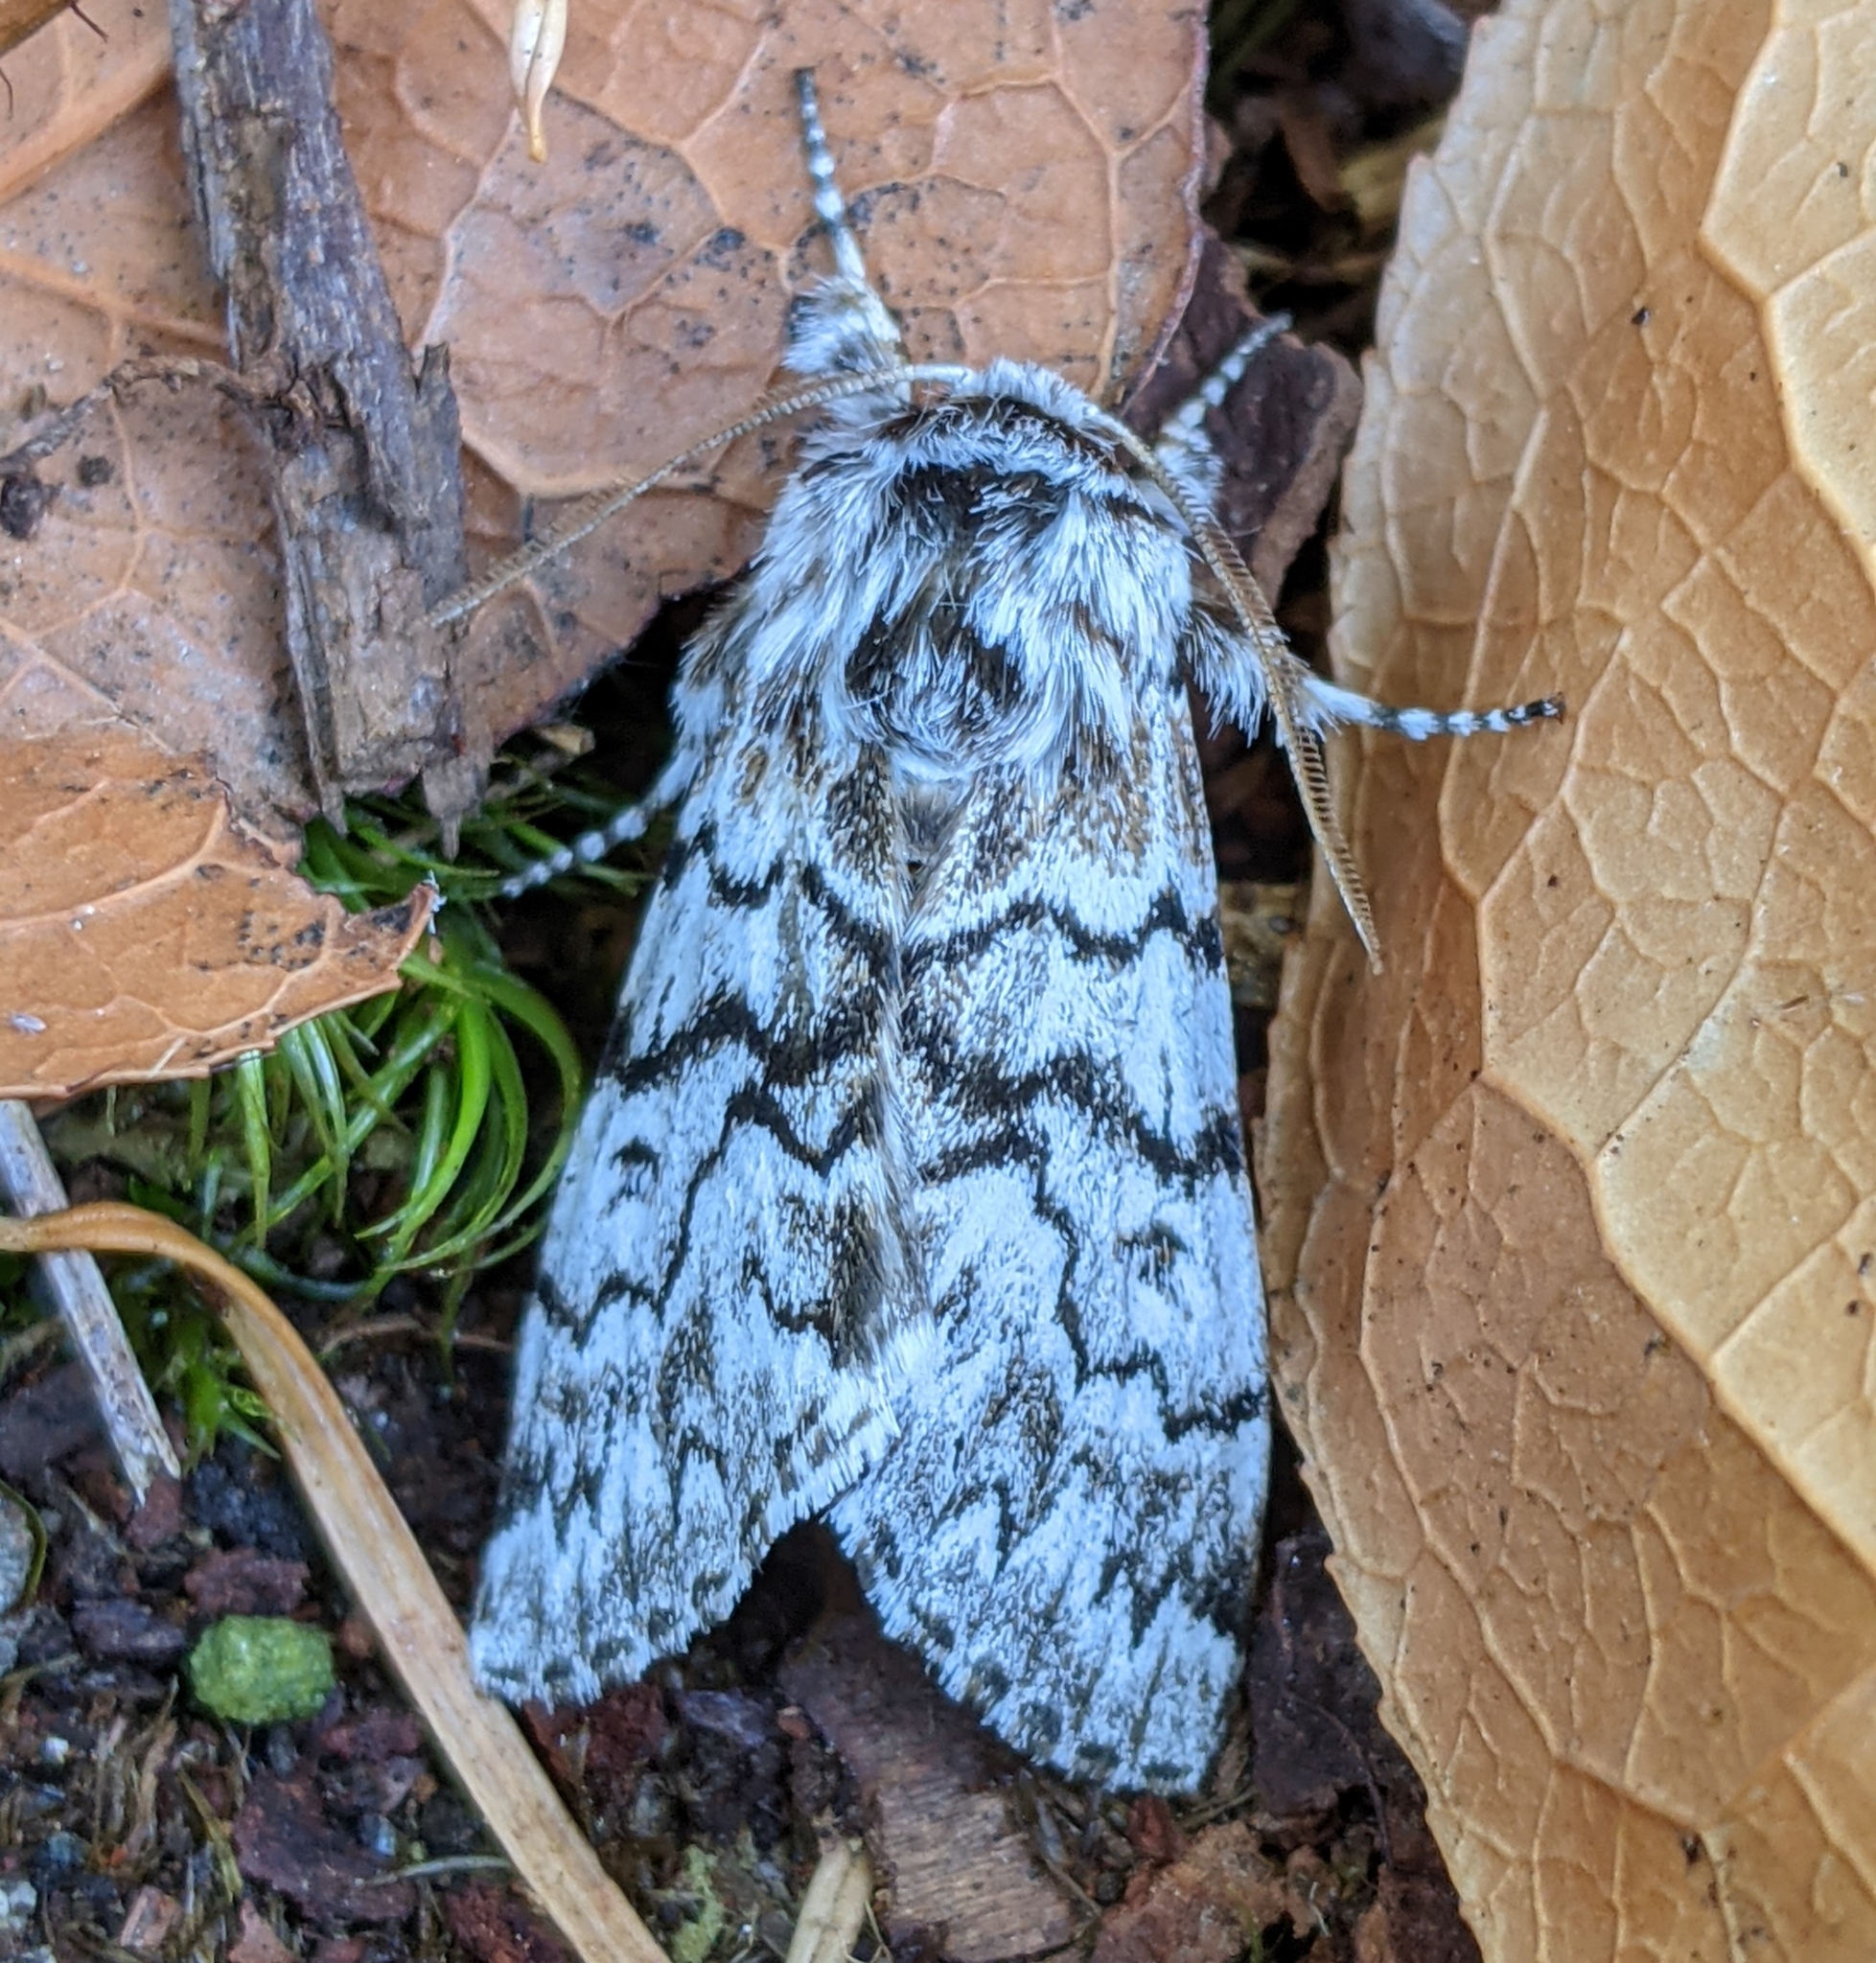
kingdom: Animalia
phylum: Arthropoda
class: Insecta
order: Lepidoptera
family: Noctuidae
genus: Panthea
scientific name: Panthea virginarius
